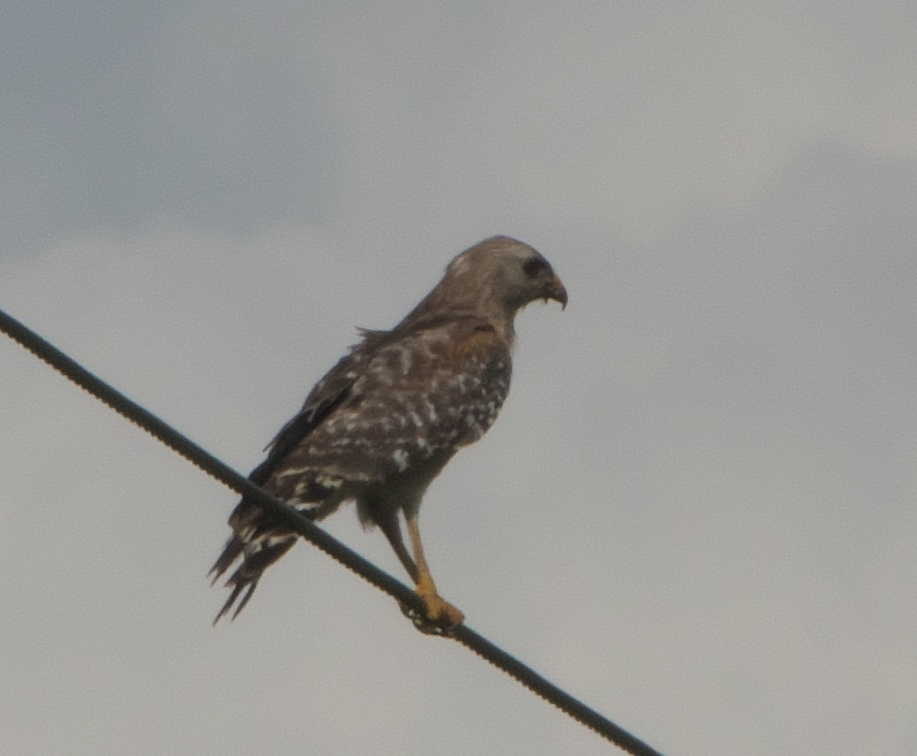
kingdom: Animalia
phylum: Chordata
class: Aves
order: Accipitriformes
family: Accipitridae
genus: Buteo
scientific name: Buteo lineatus
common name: Red-shouldered hawk
